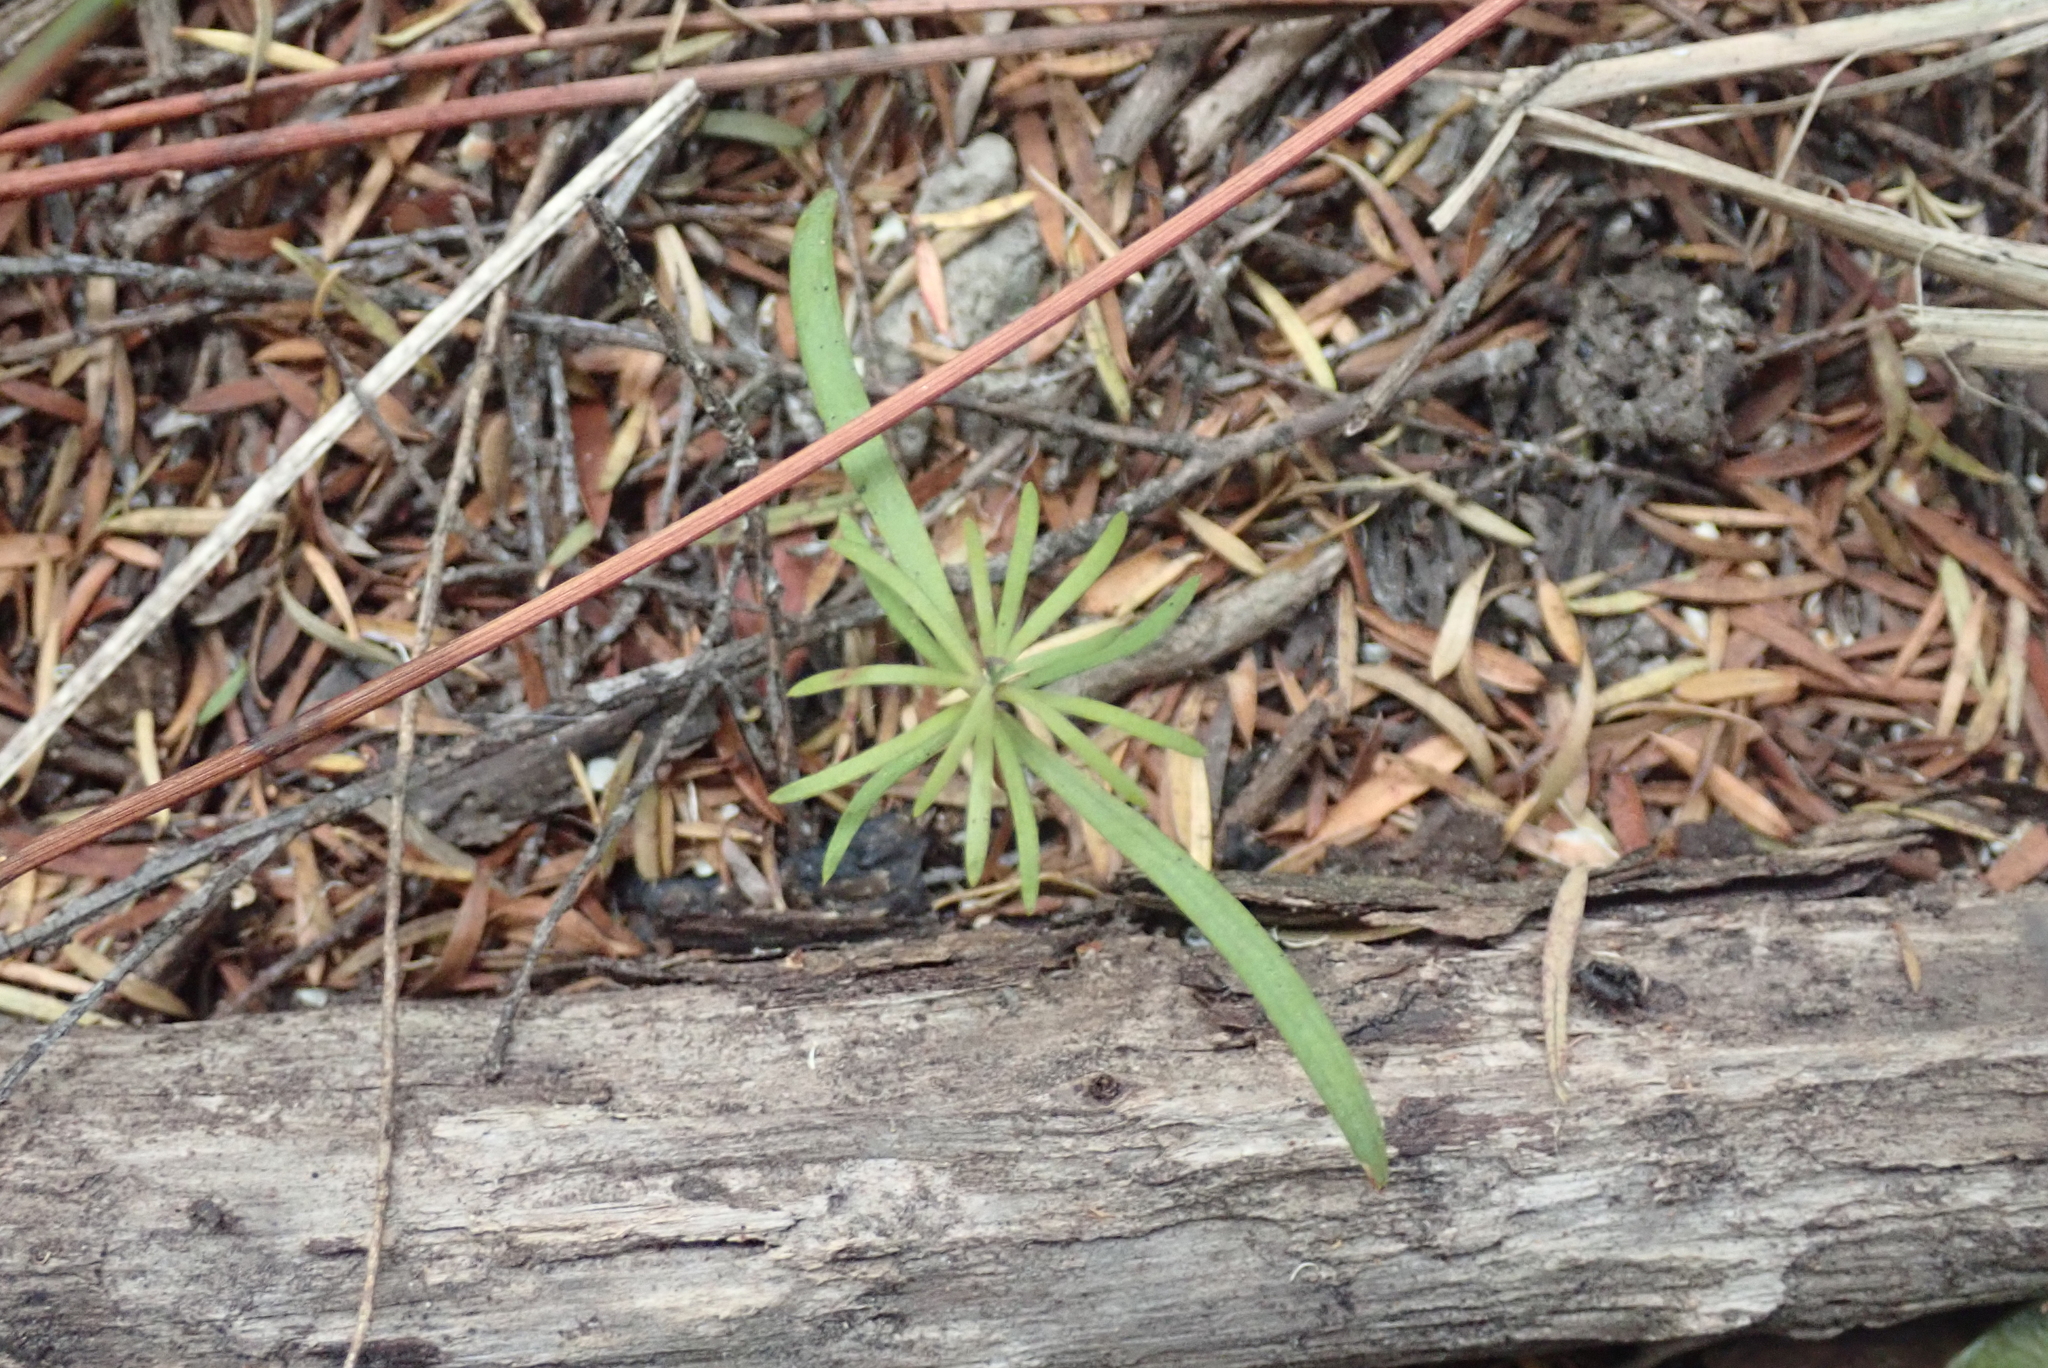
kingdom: Plantae
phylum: Tracheophyta
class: Pinopsida
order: Pinales
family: Podocarpaceae
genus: Podocarpus
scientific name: Podocarpus totara
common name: Totara
